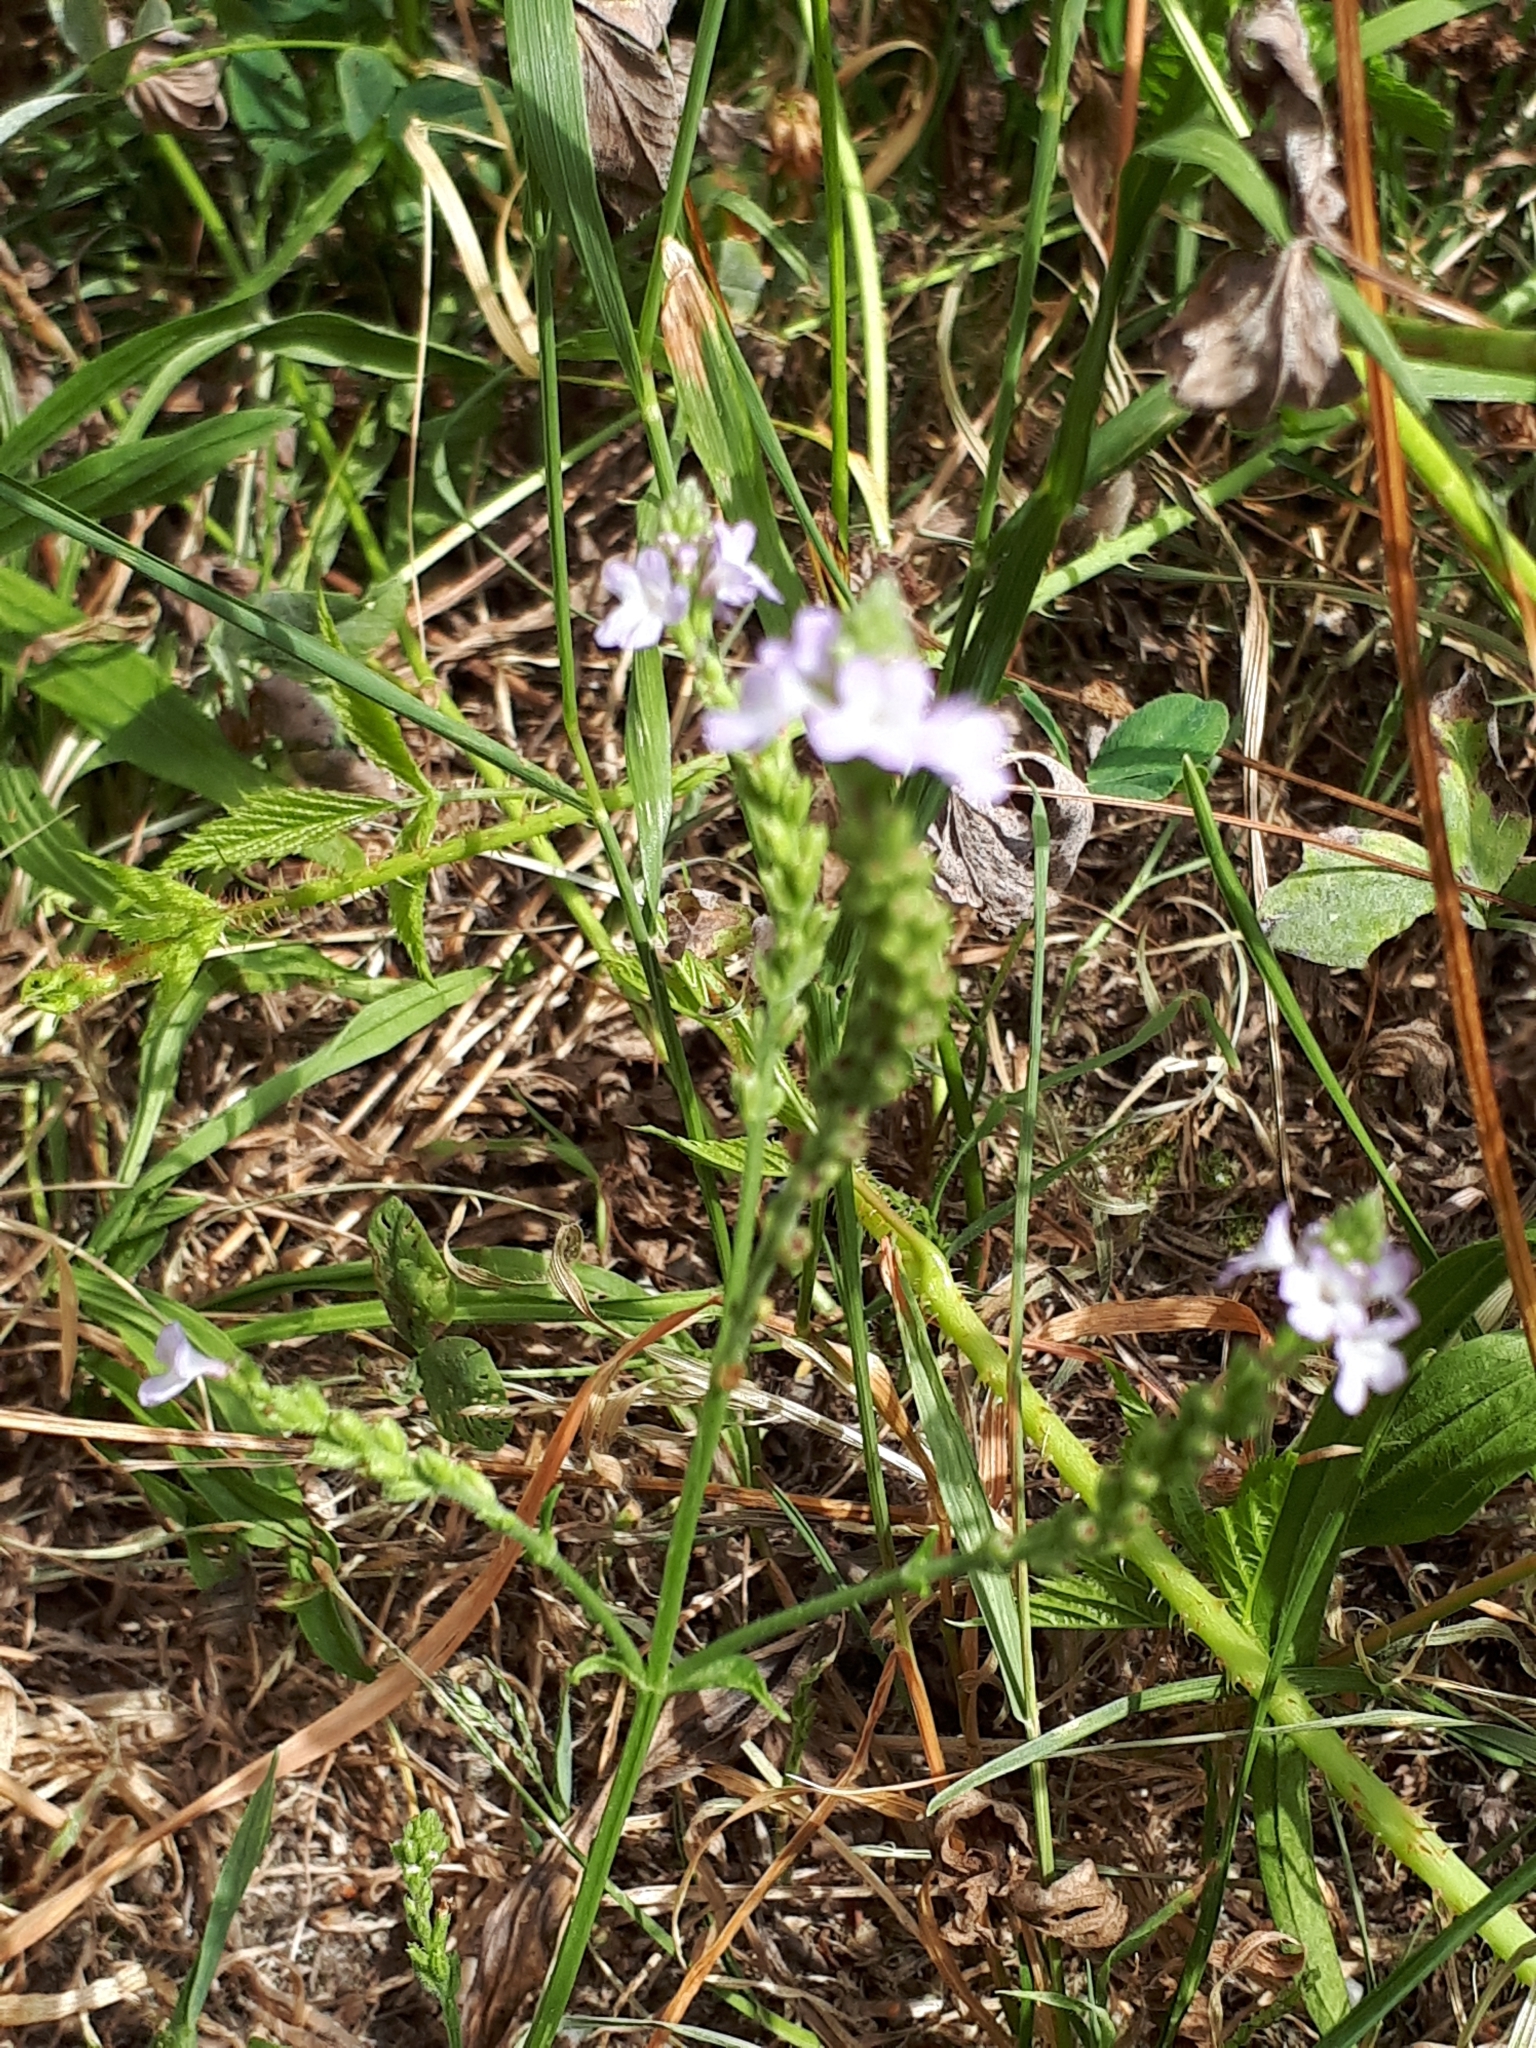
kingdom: Plantae
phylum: Tracheophyta
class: Magnoliopsida
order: Lamiales
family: Verbenaceae
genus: Verbena
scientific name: Verbena officinalis
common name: Vervain
